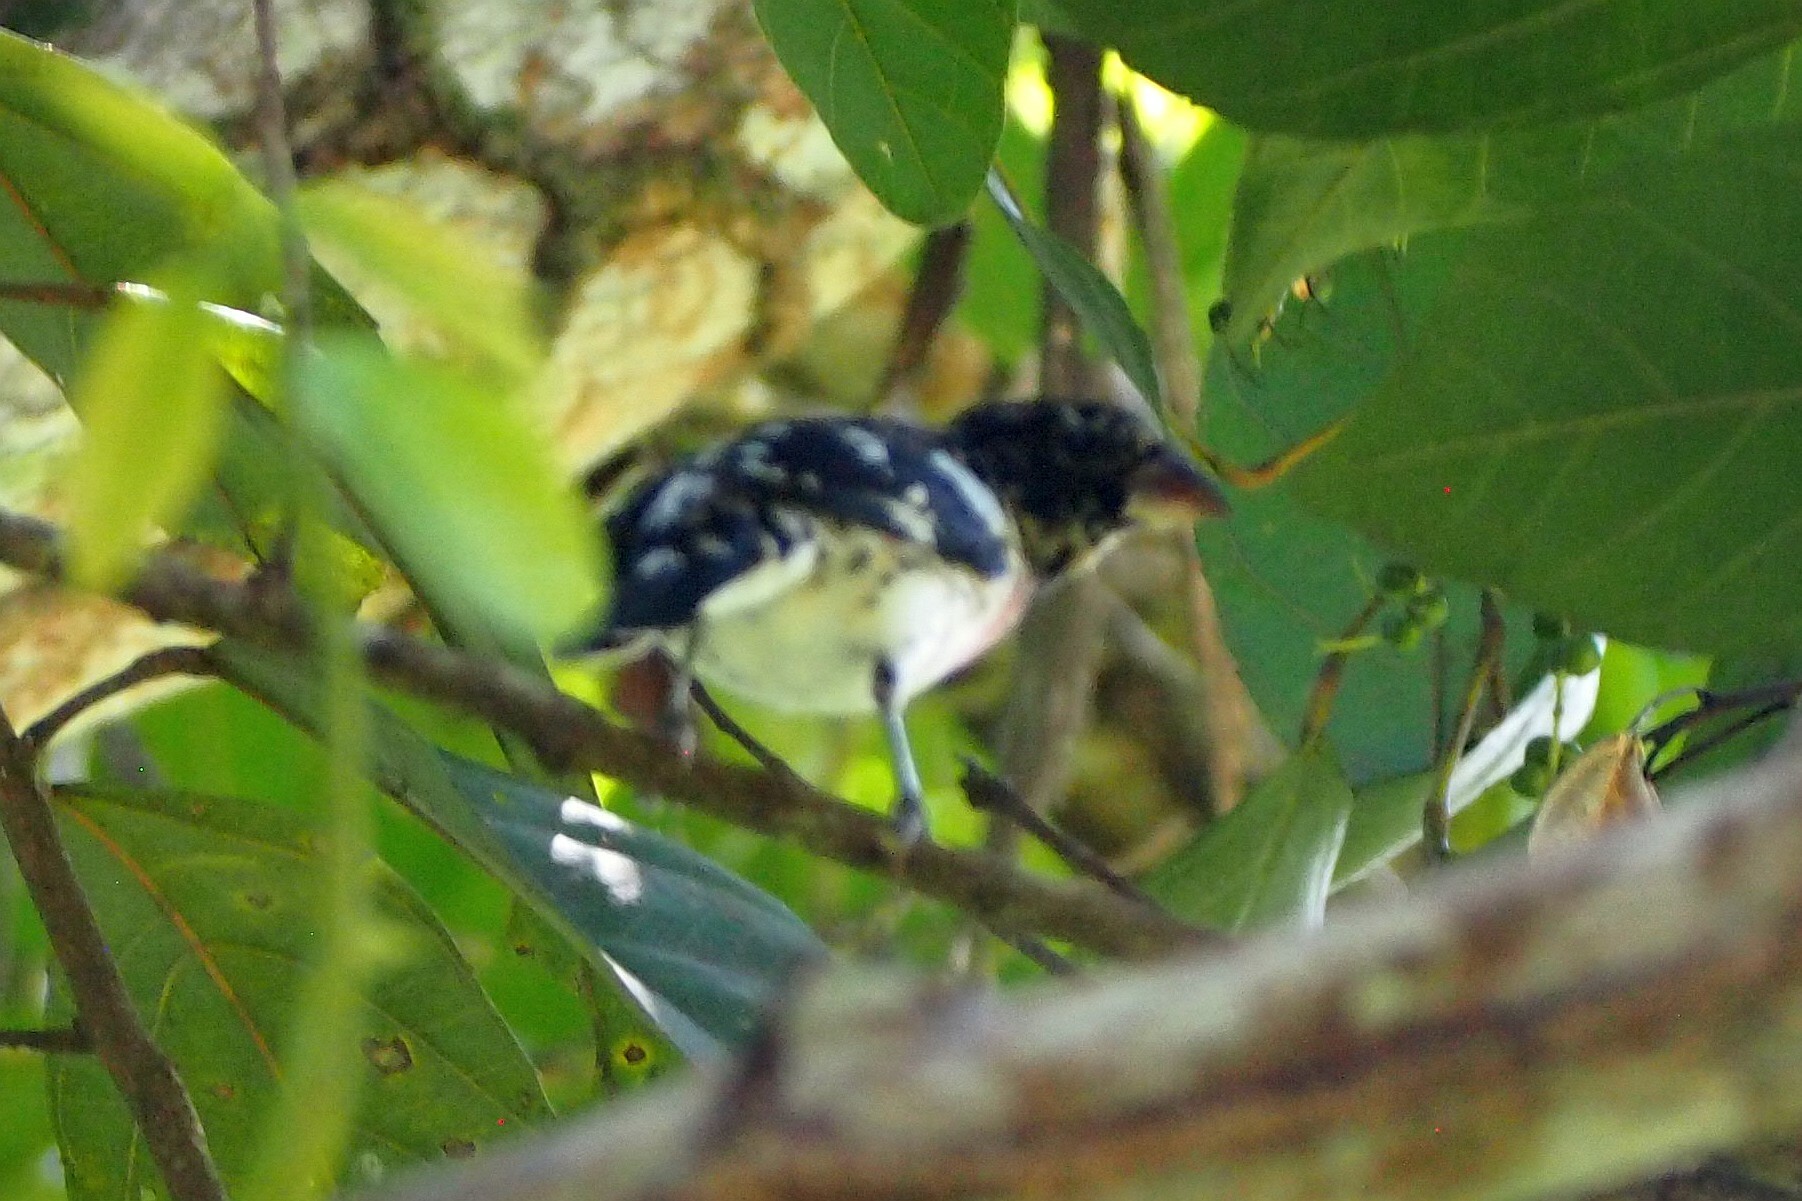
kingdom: Animalia
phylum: Chordata
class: Aves
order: Passeriformes
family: Cardinalidae
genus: Pheucticus
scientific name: Pheucticus ludovicianus
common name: Rose-breasted grosbeak
